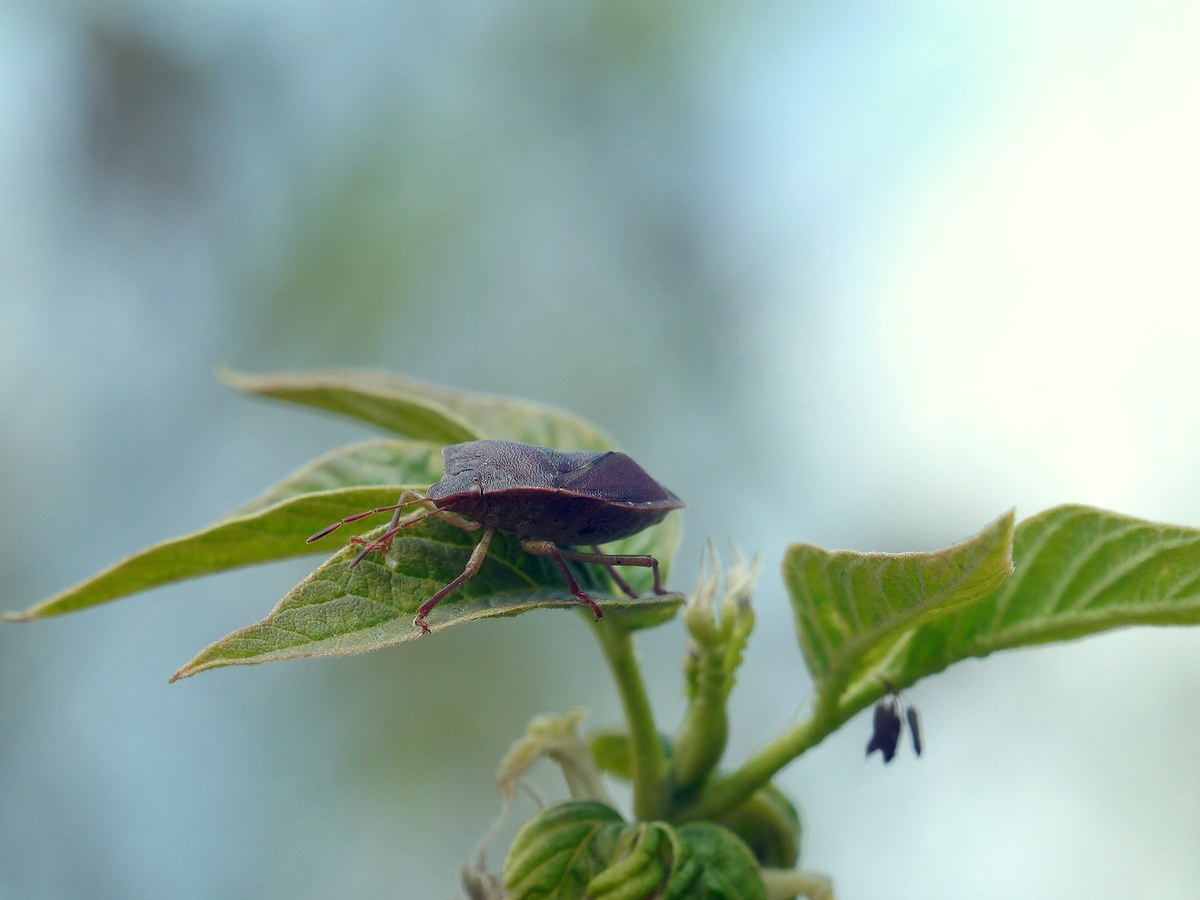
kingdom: Animalia
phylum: Arthropoda
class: Insecta
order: Hemiptera
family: Pentatomidae
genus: Palomena
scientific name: Palomena prasina
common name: Green shieldbug
